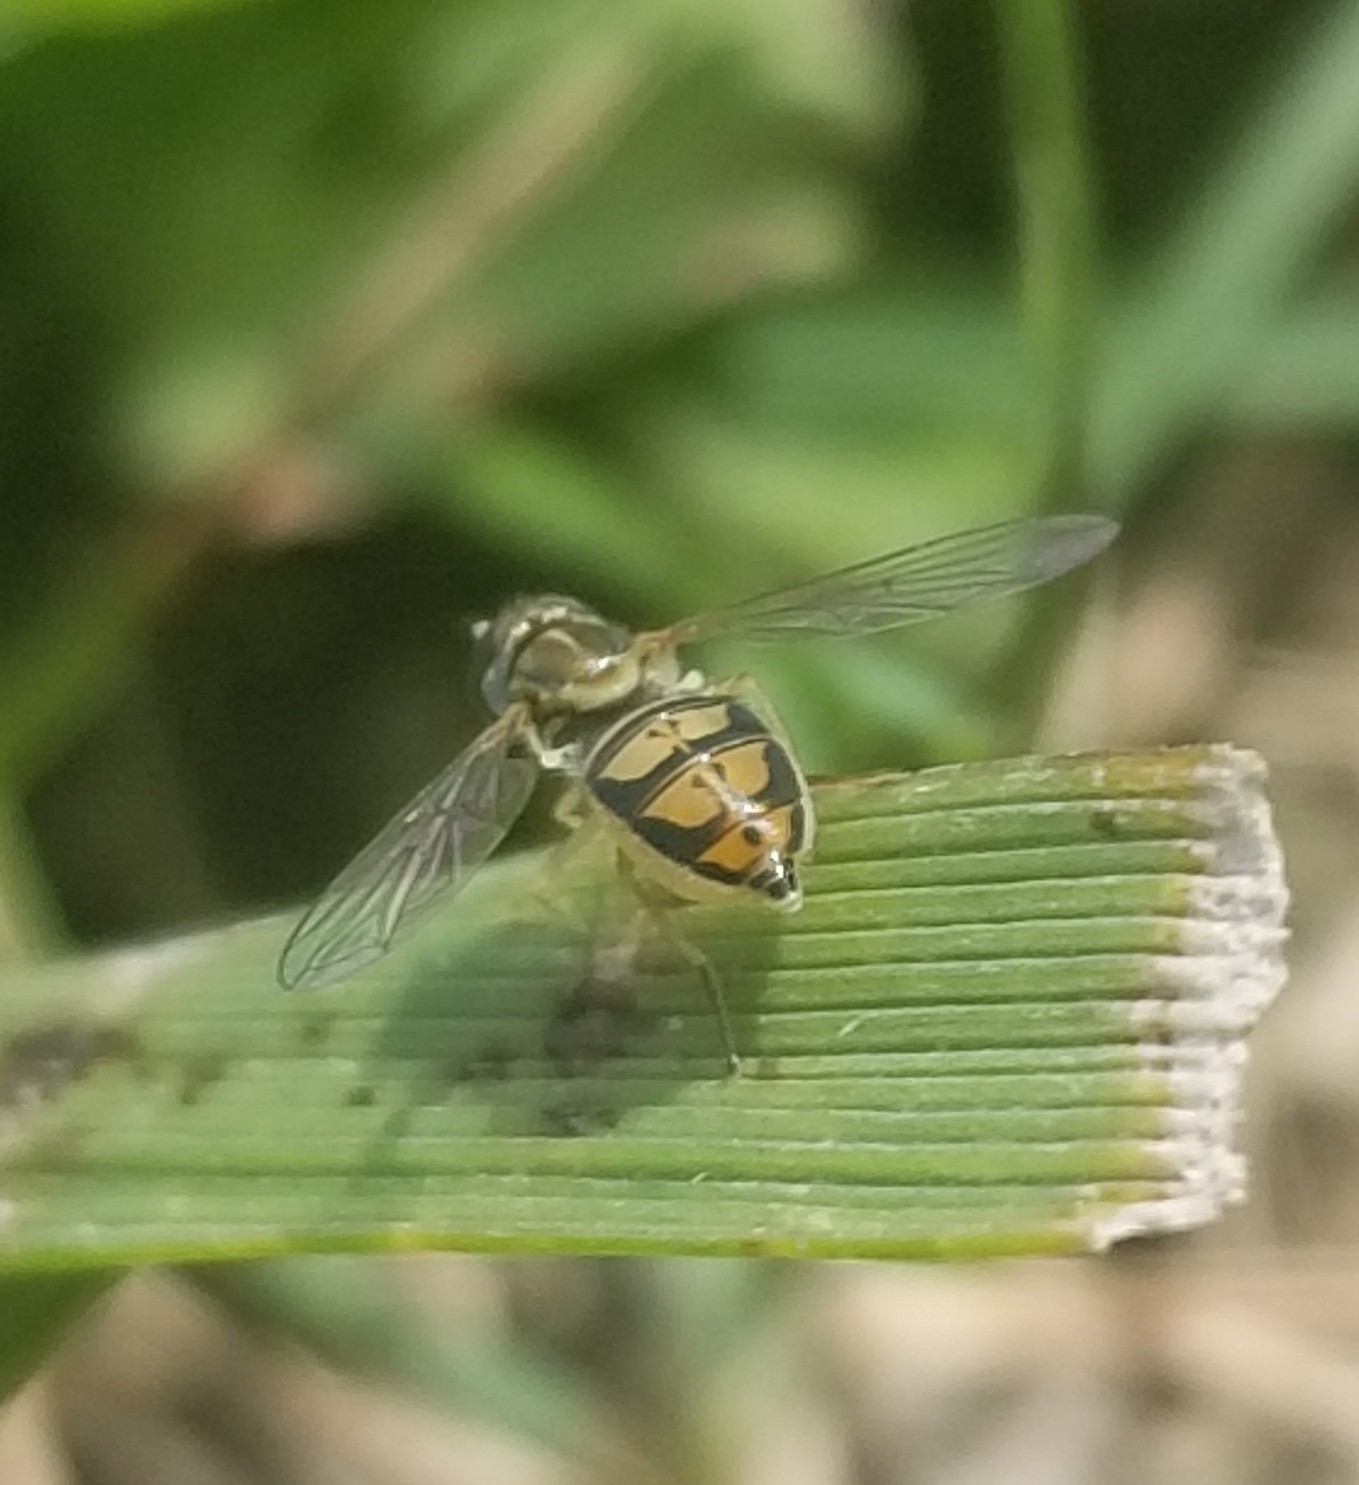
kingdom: Animalia
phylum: Arthropoda
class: Insecta
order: Diptera
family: Syrphidae
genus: Toxomerus
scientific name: Toxomerus marginatus
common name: Syrphid fly
